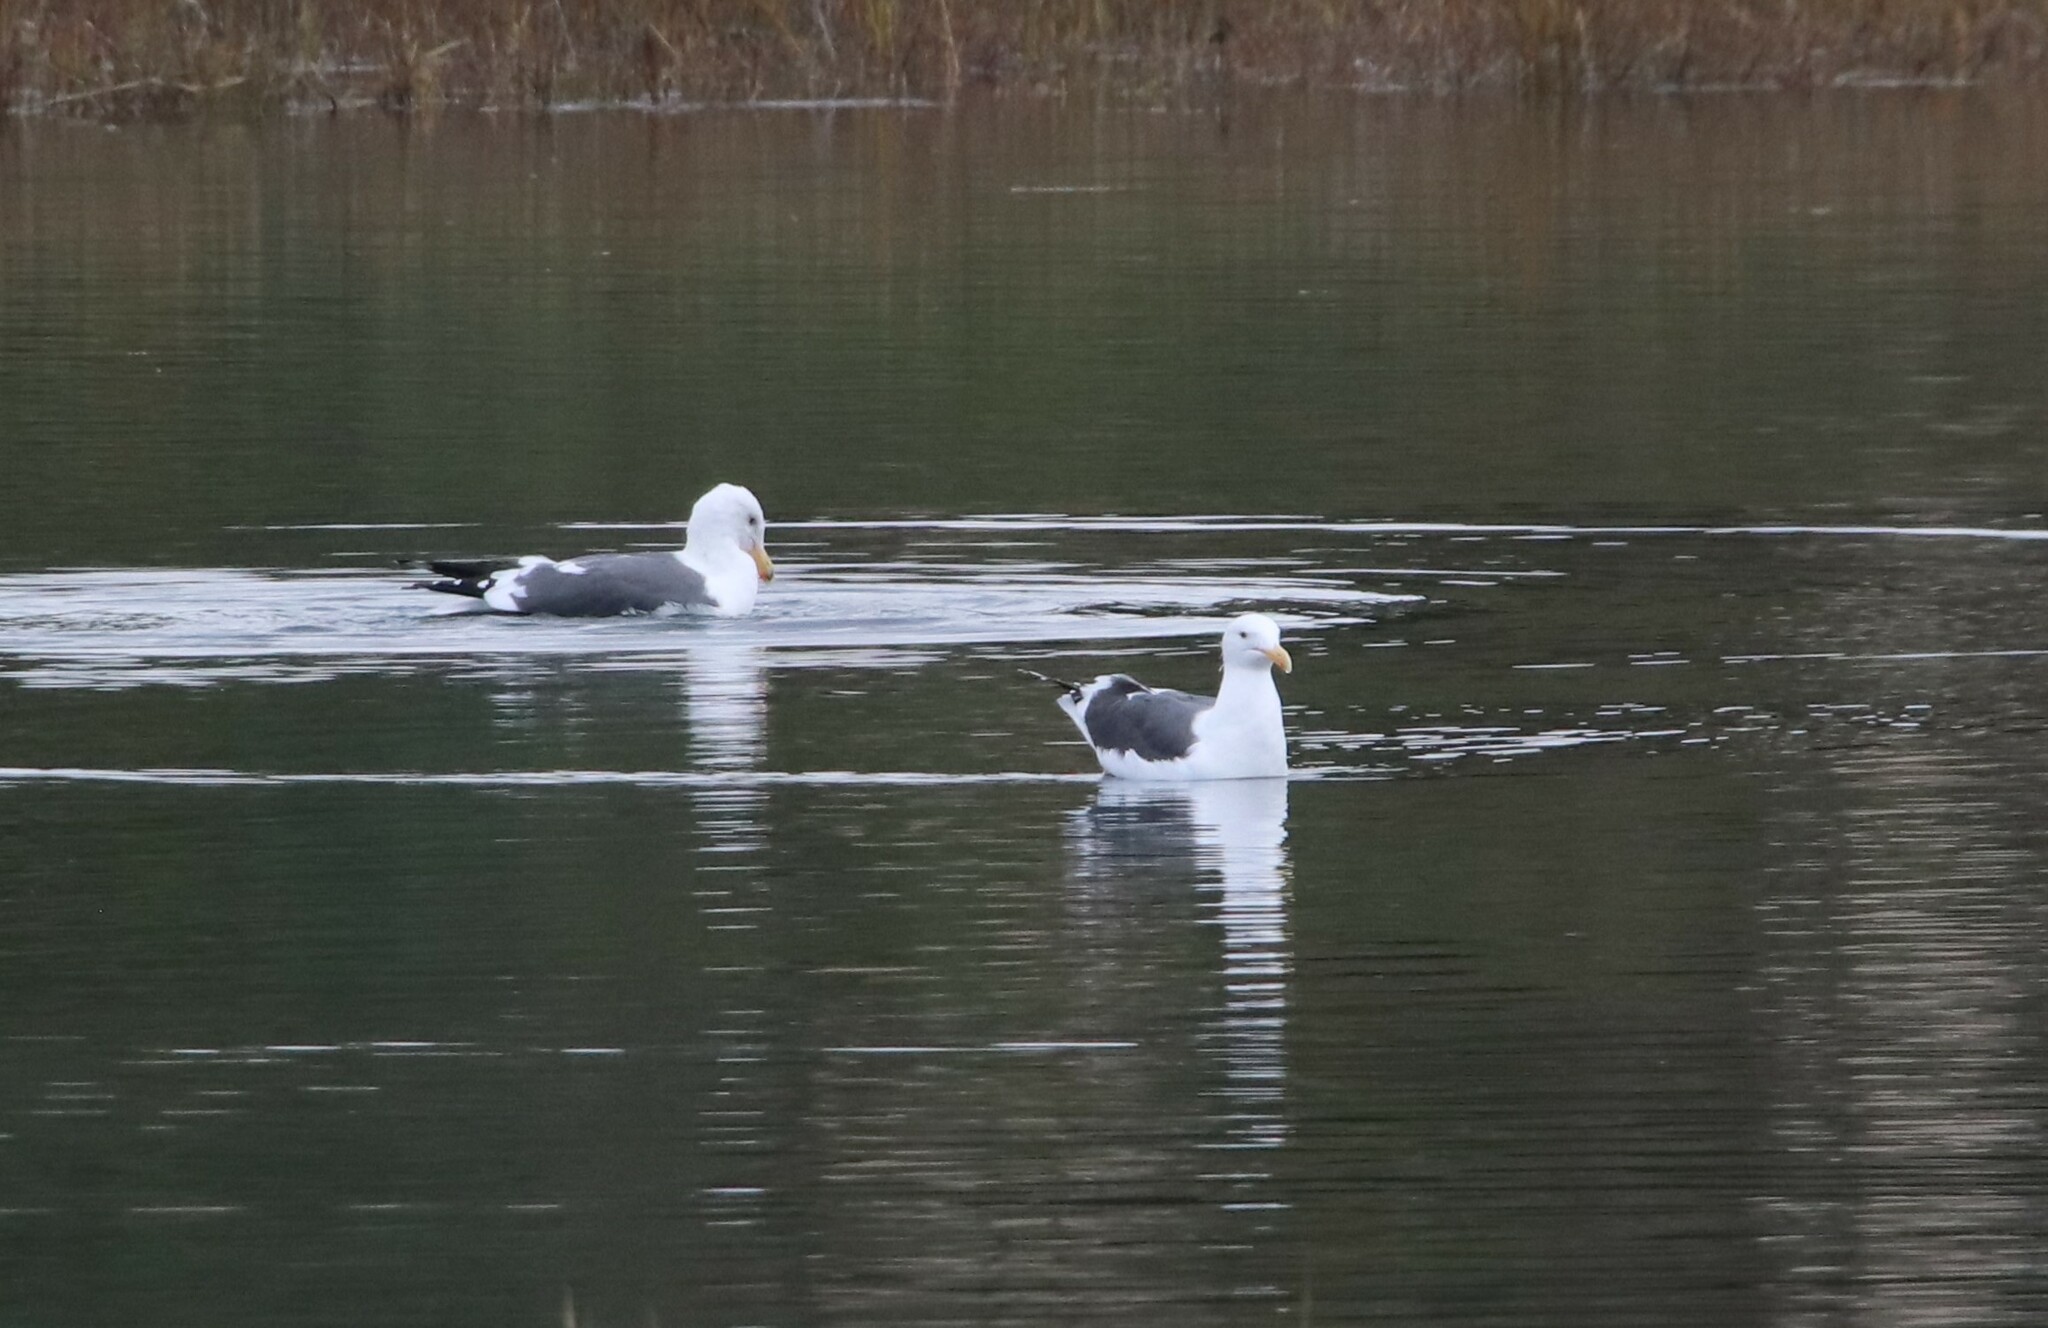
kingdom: Animalia
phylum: Chordata
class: Aves
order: Charadriiformes
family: Laridae
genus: Larus
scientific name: Larus occidentalis
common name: Western gull
